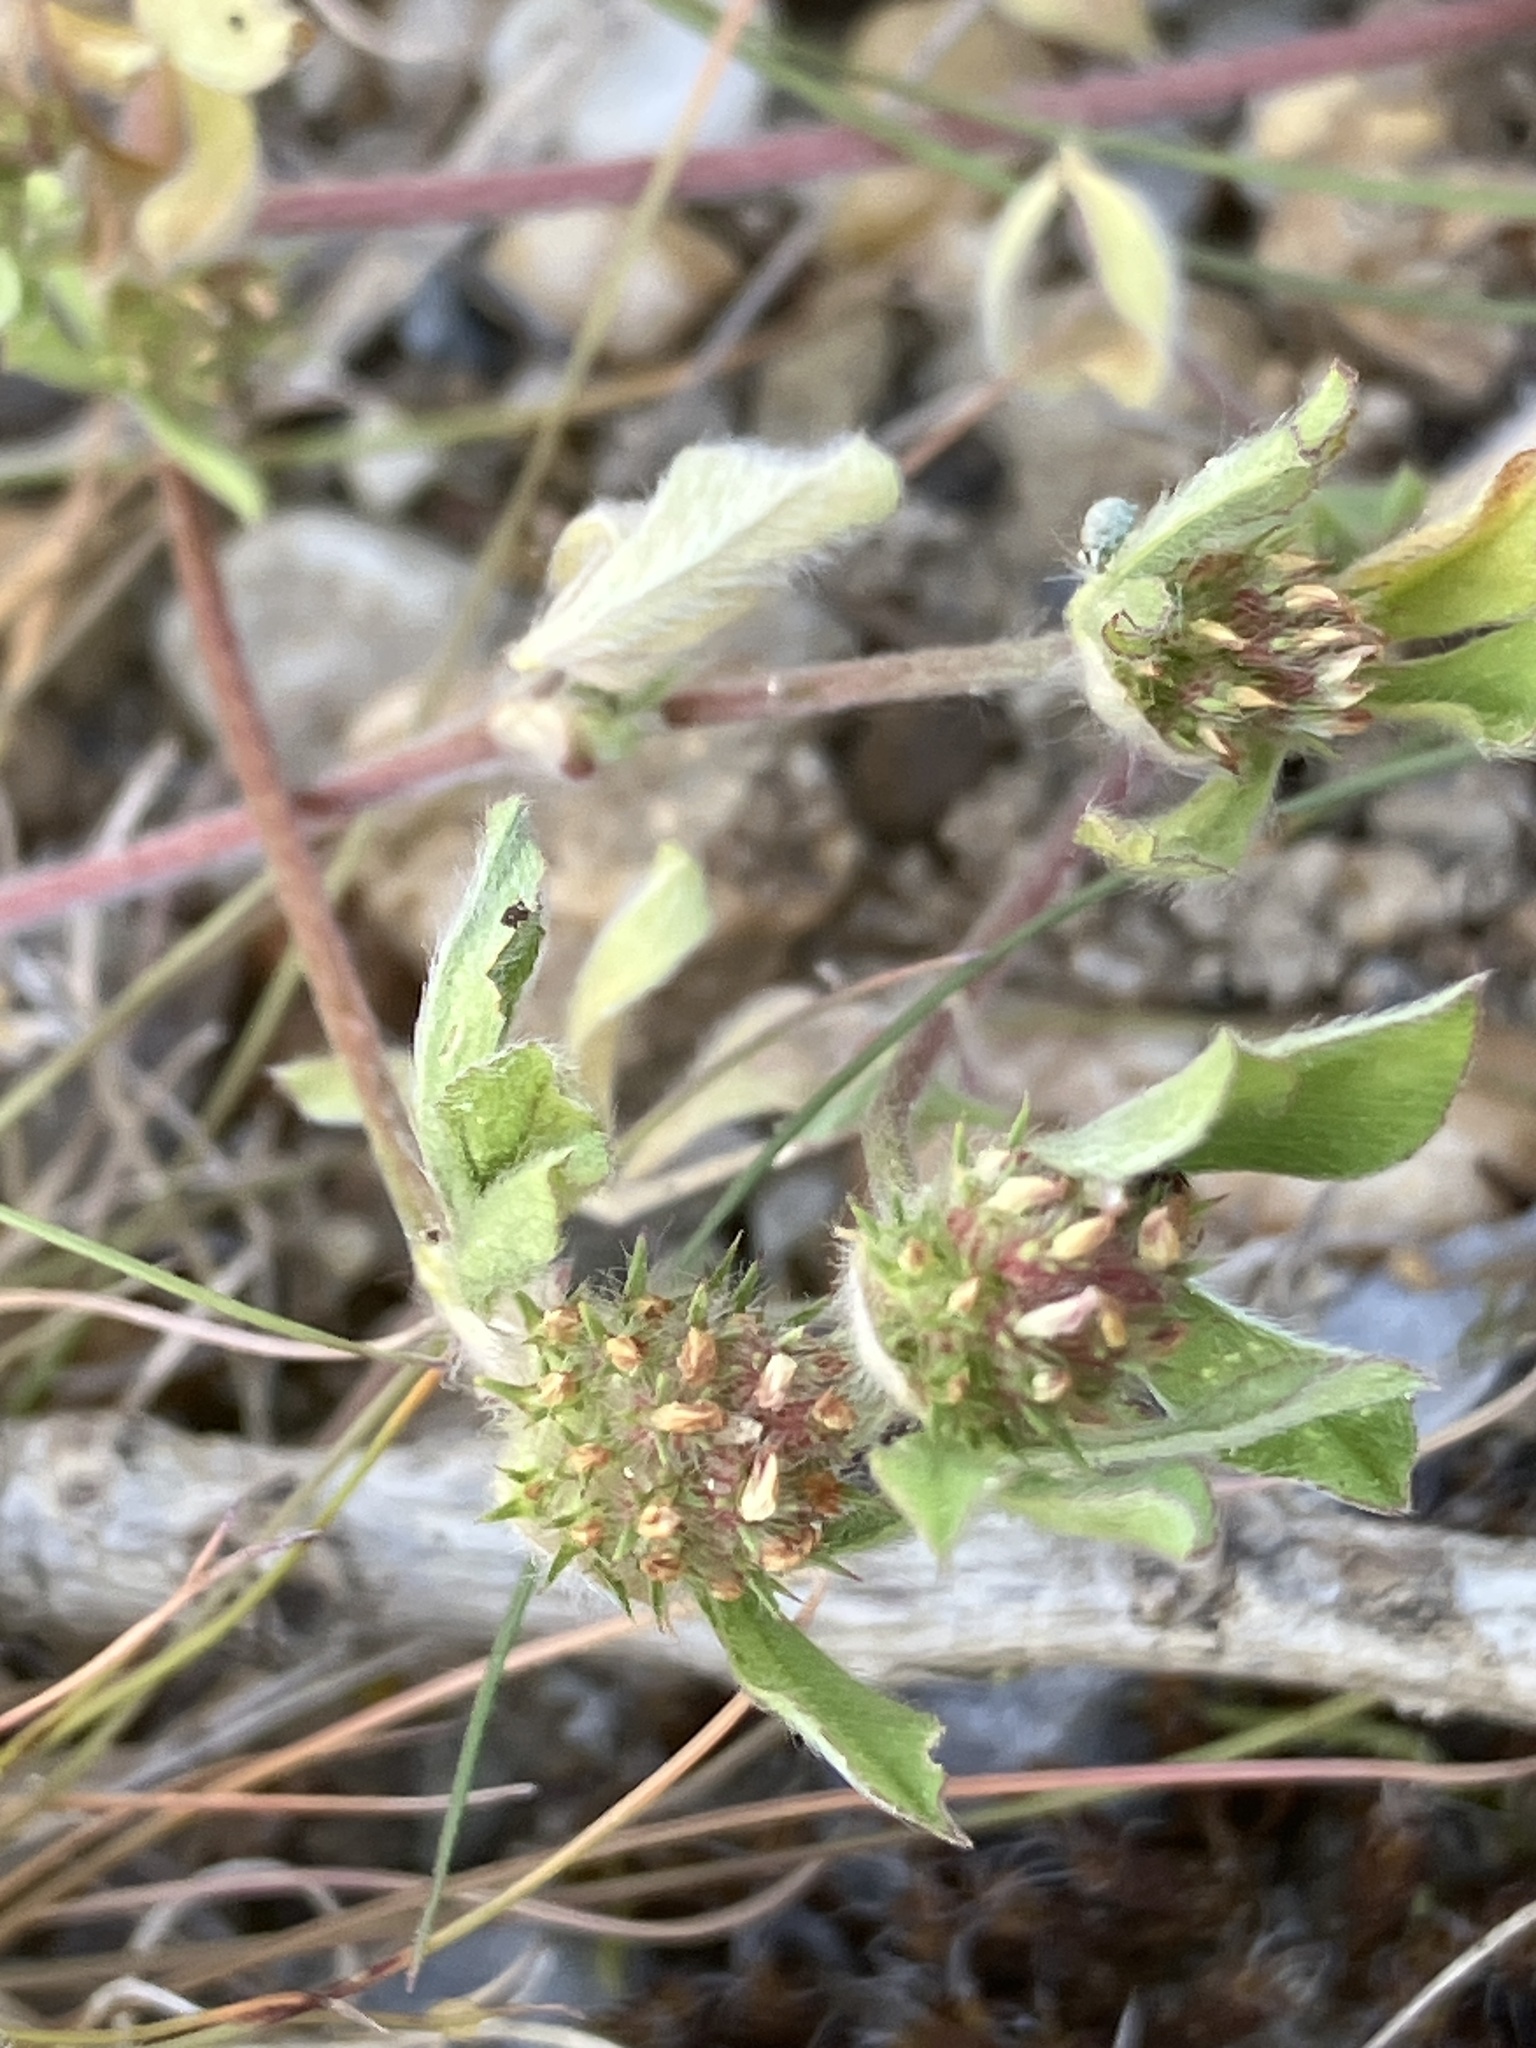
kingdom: Plantae
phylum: Tracheophyta
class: Magnoliopsida
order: Fabales
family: Fabaceae
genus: Trifolium
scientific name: Trifolium striatum
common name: Knotted clover
